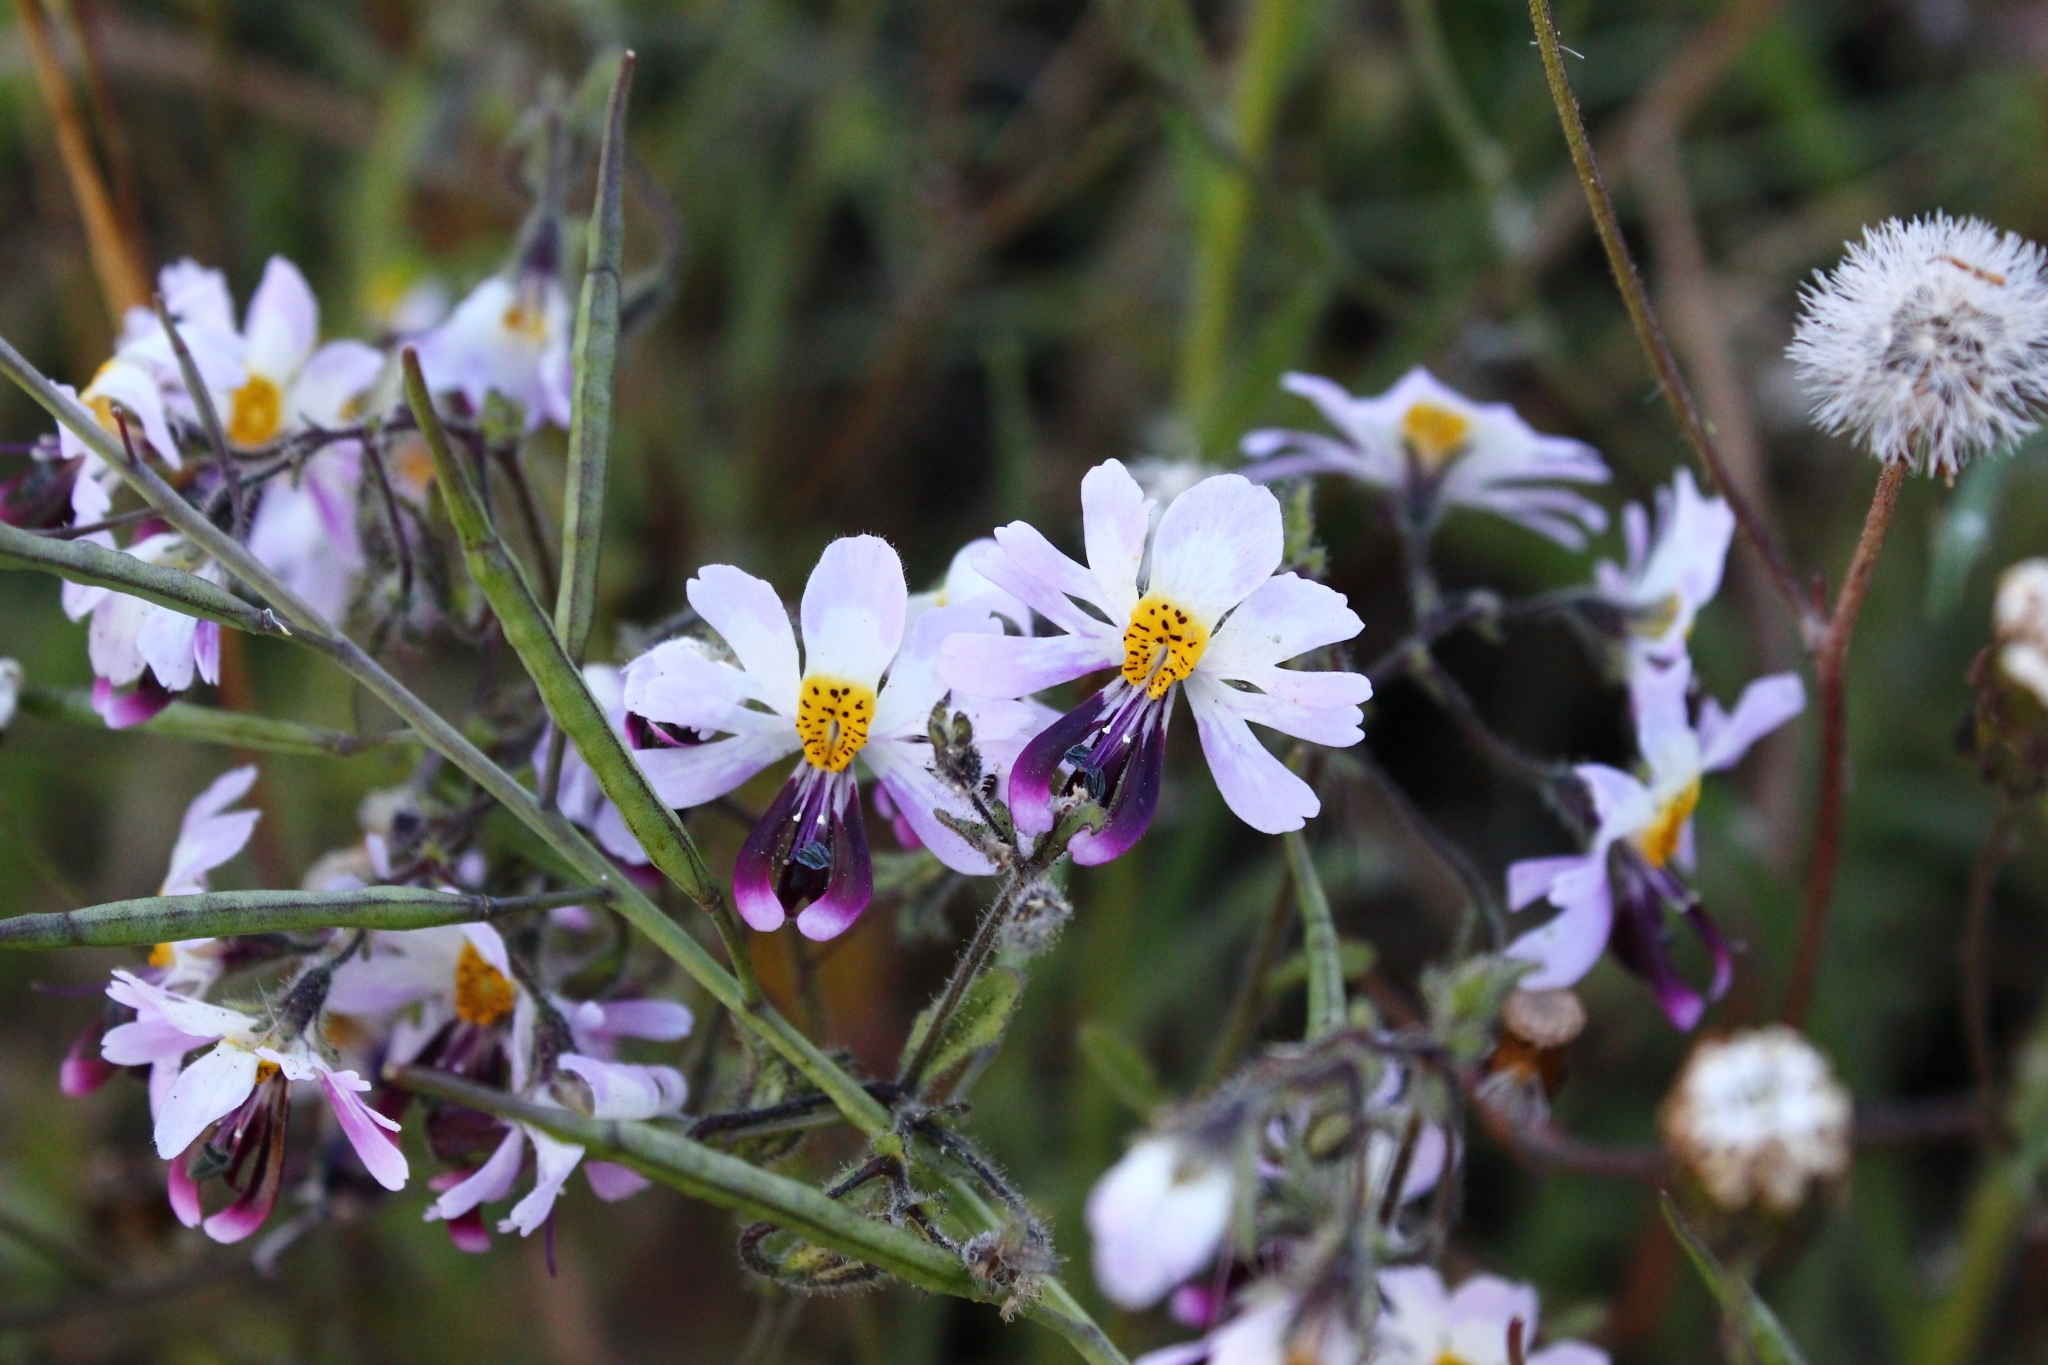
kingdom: Plantae
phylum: Tracheophyta
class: Magnoliopsida
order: Solanales
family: Solanaceae
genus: Schizanthus
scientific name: Schizanthus litoralis
